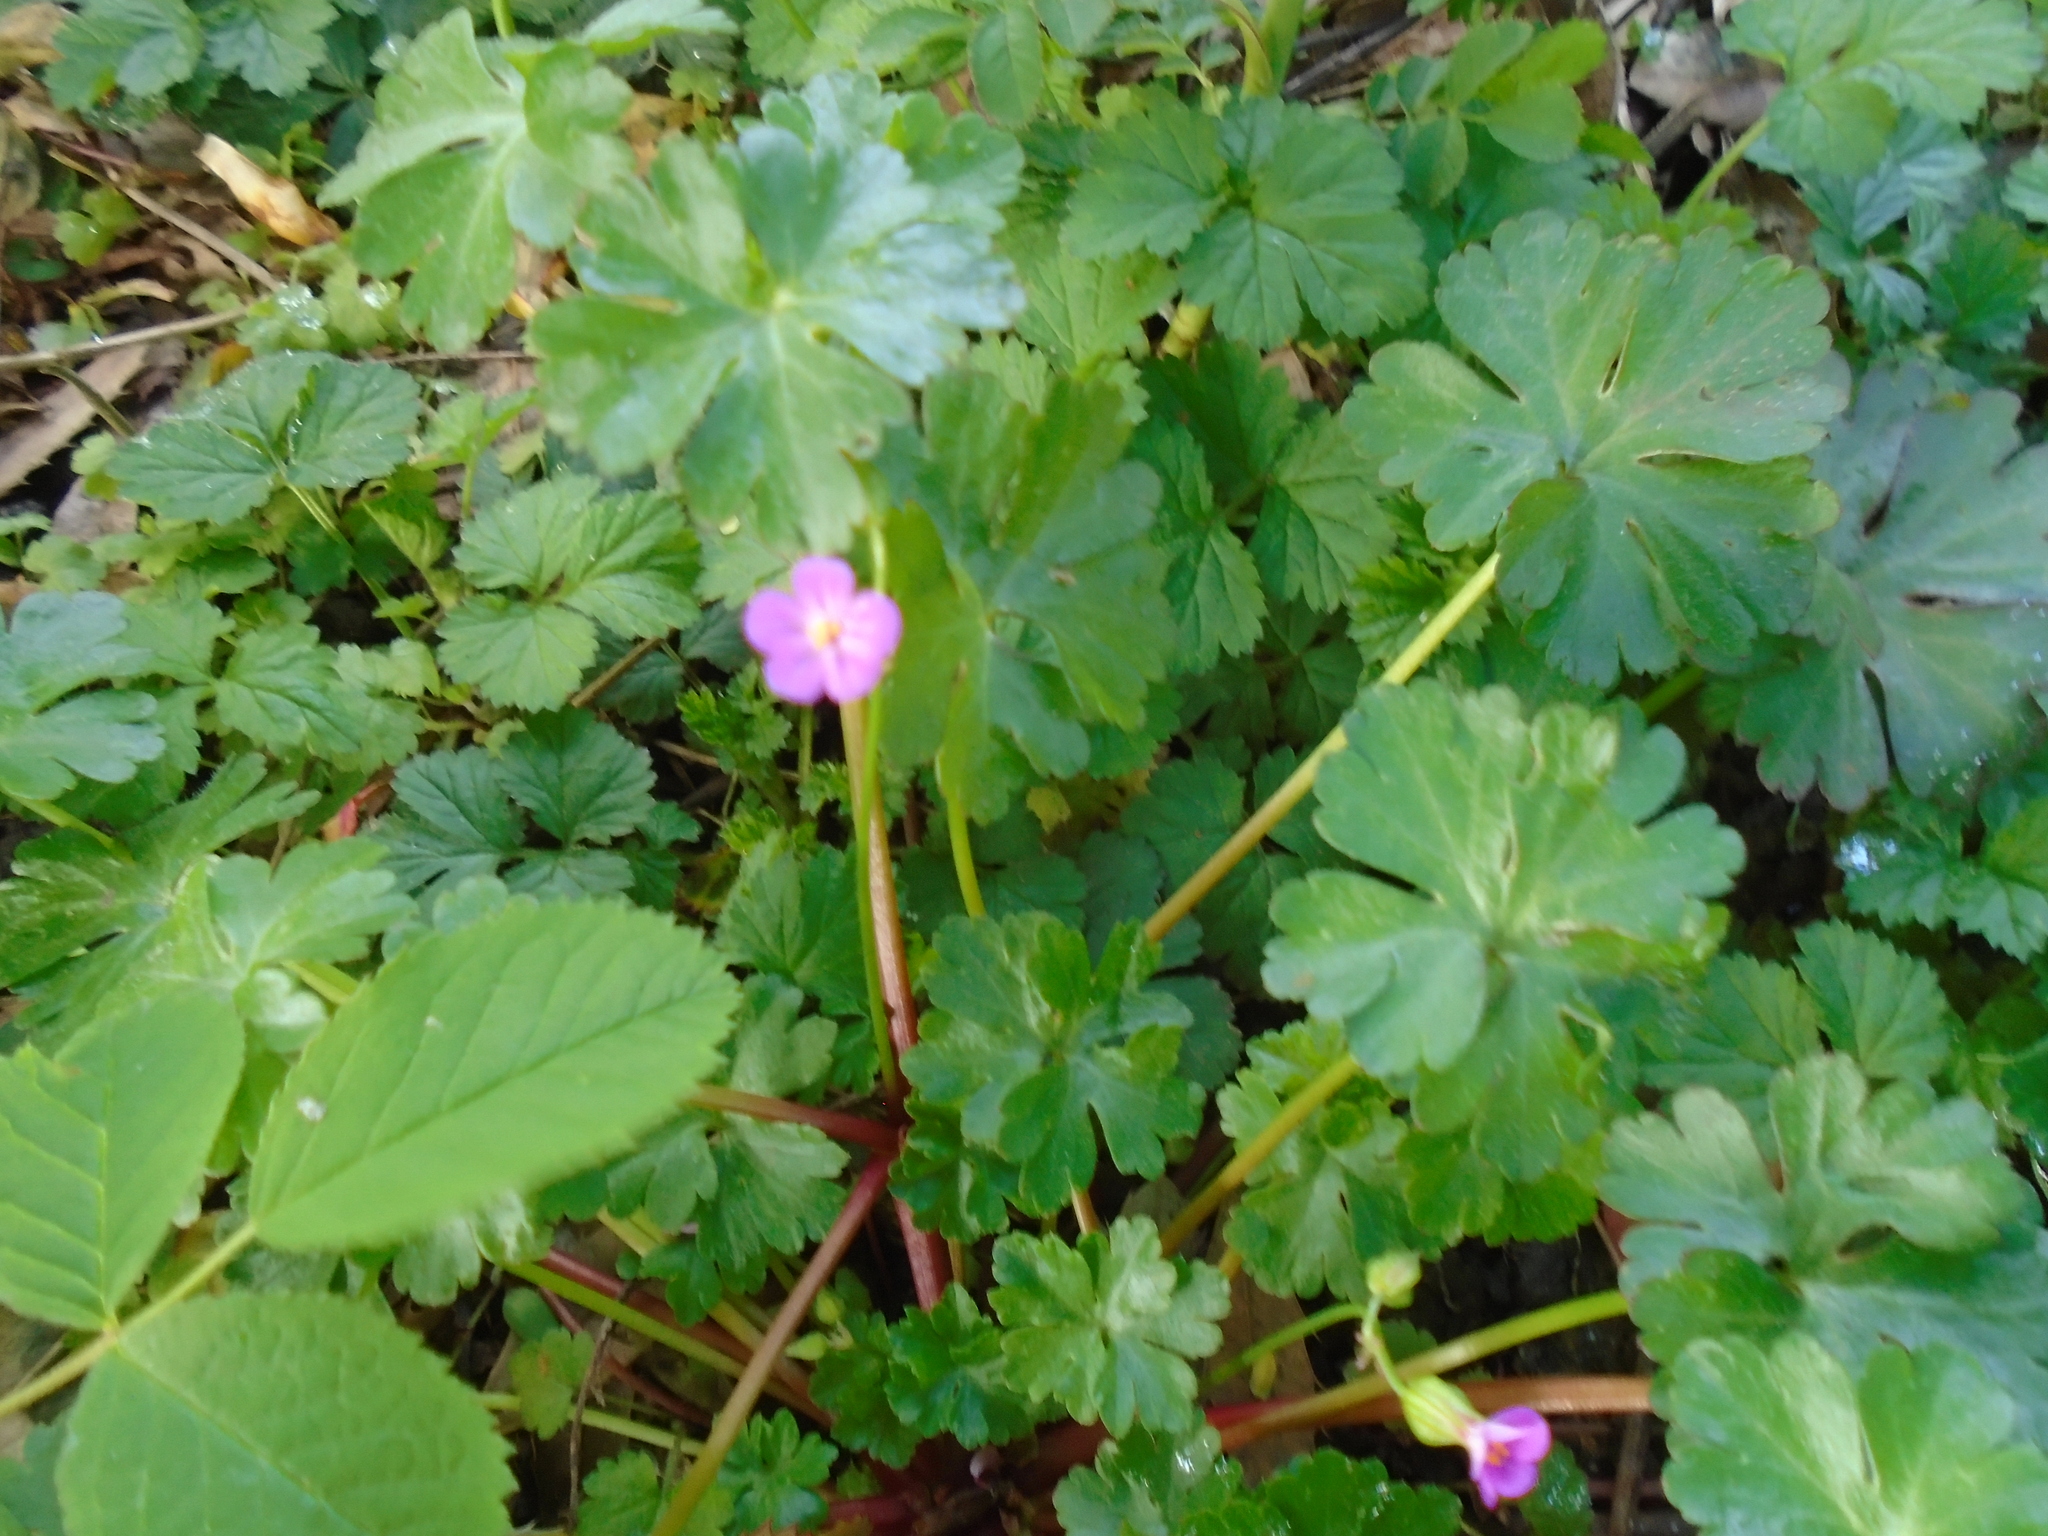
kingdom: Plantae
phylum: Tracheophyta
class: Magnoliopsida
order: Geraniales
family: Geraniaceae
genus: Geranium
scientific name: Geranium lucidum
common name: Shining crane's-bill
